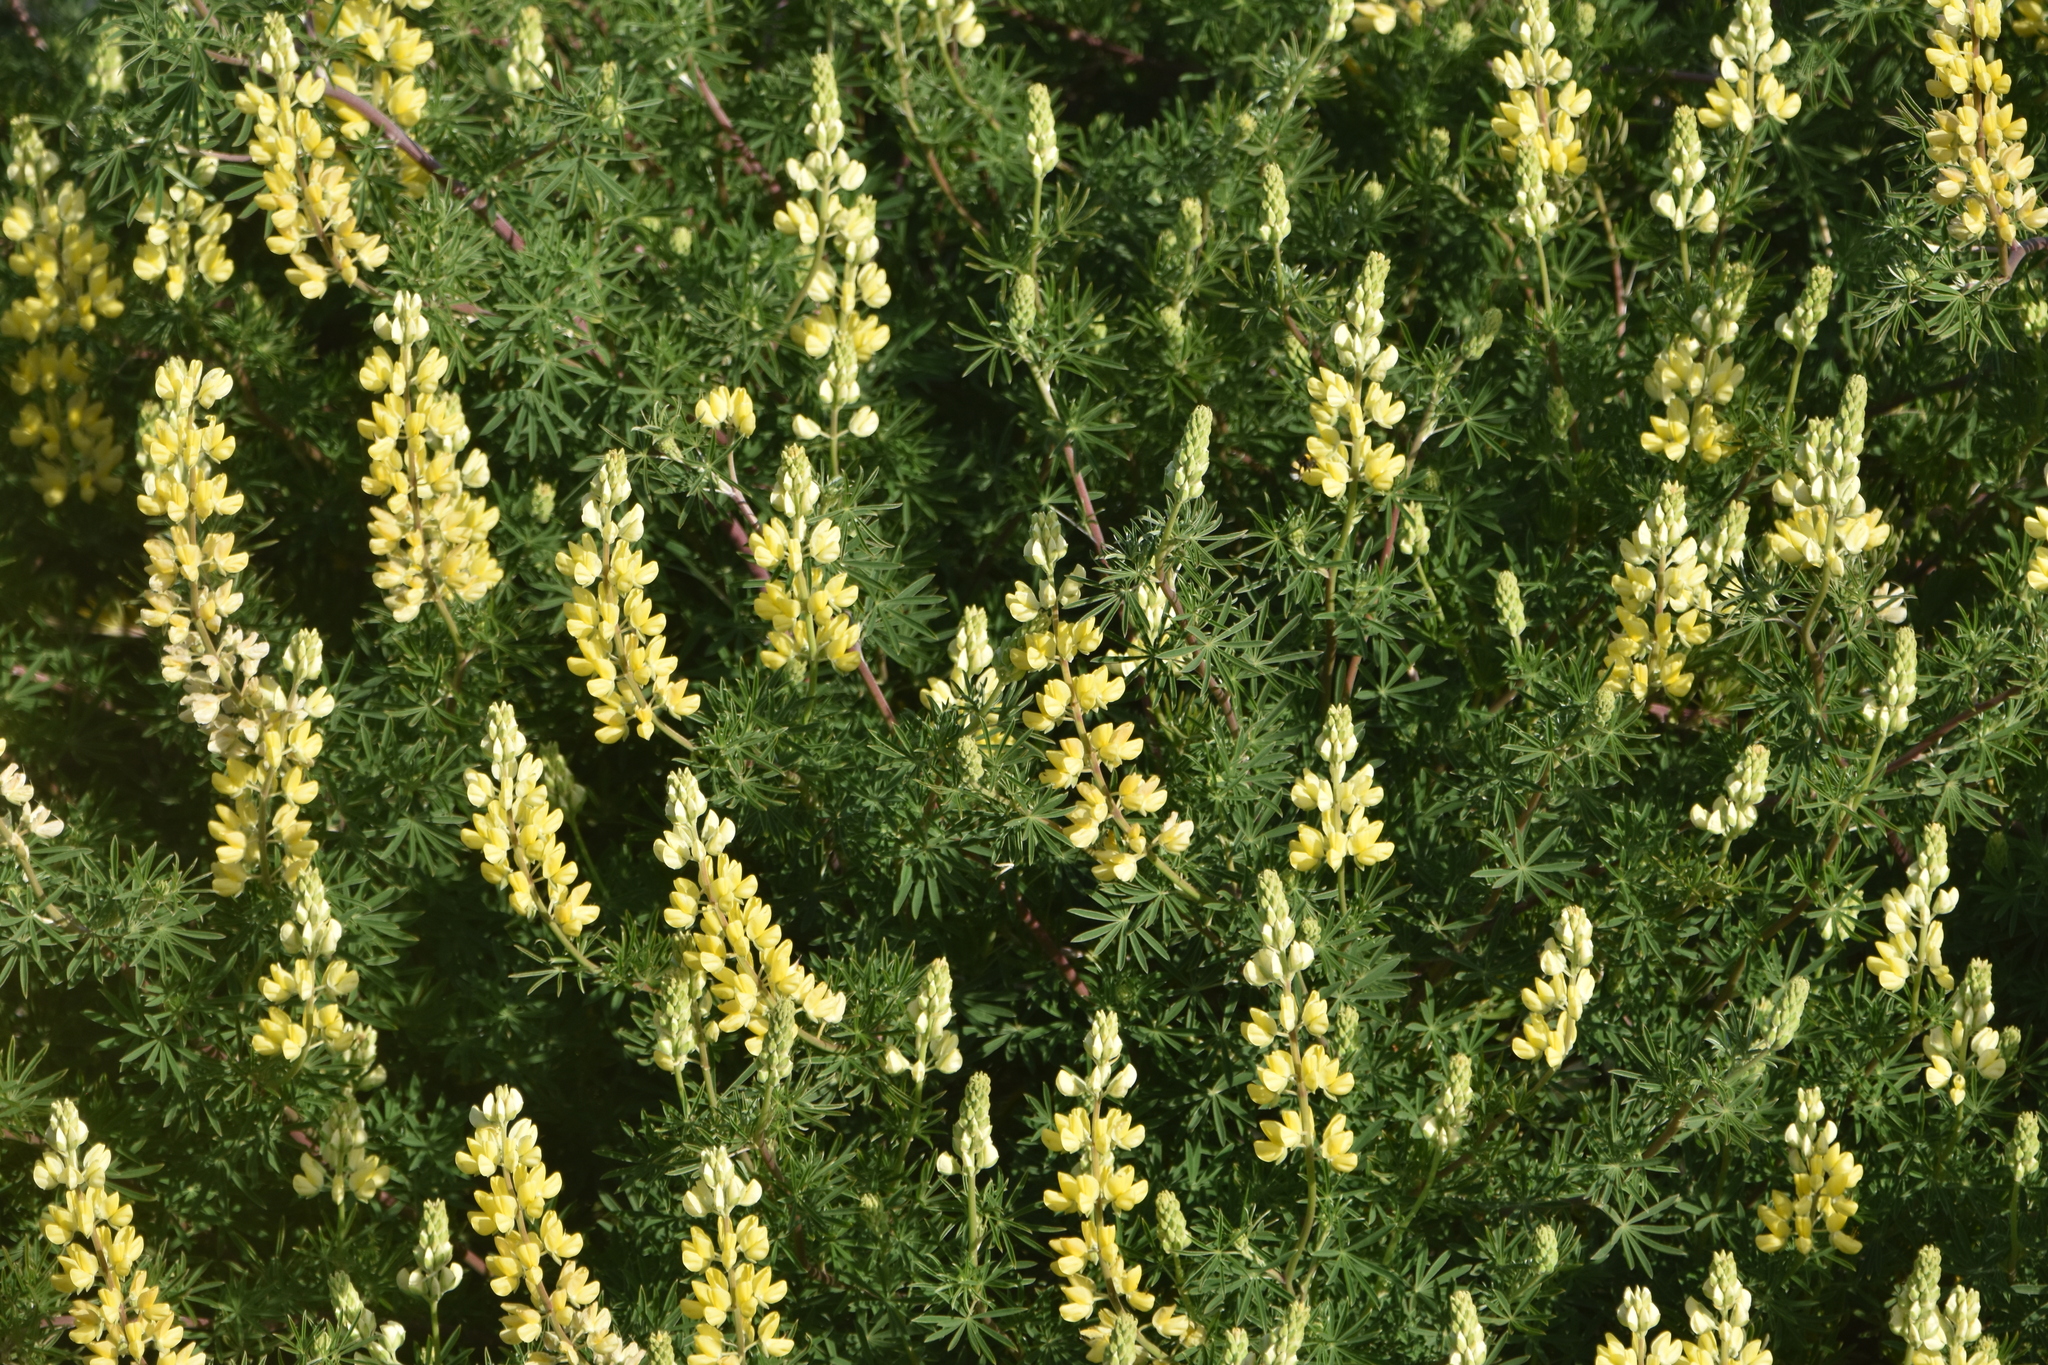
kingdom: Plantae
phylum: Tracheophyta
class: Magnoliopsida
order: Fabales
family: Fabaceae
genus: Lupinus
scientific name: Lupinus arboreus
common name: Yellow bush lupine
